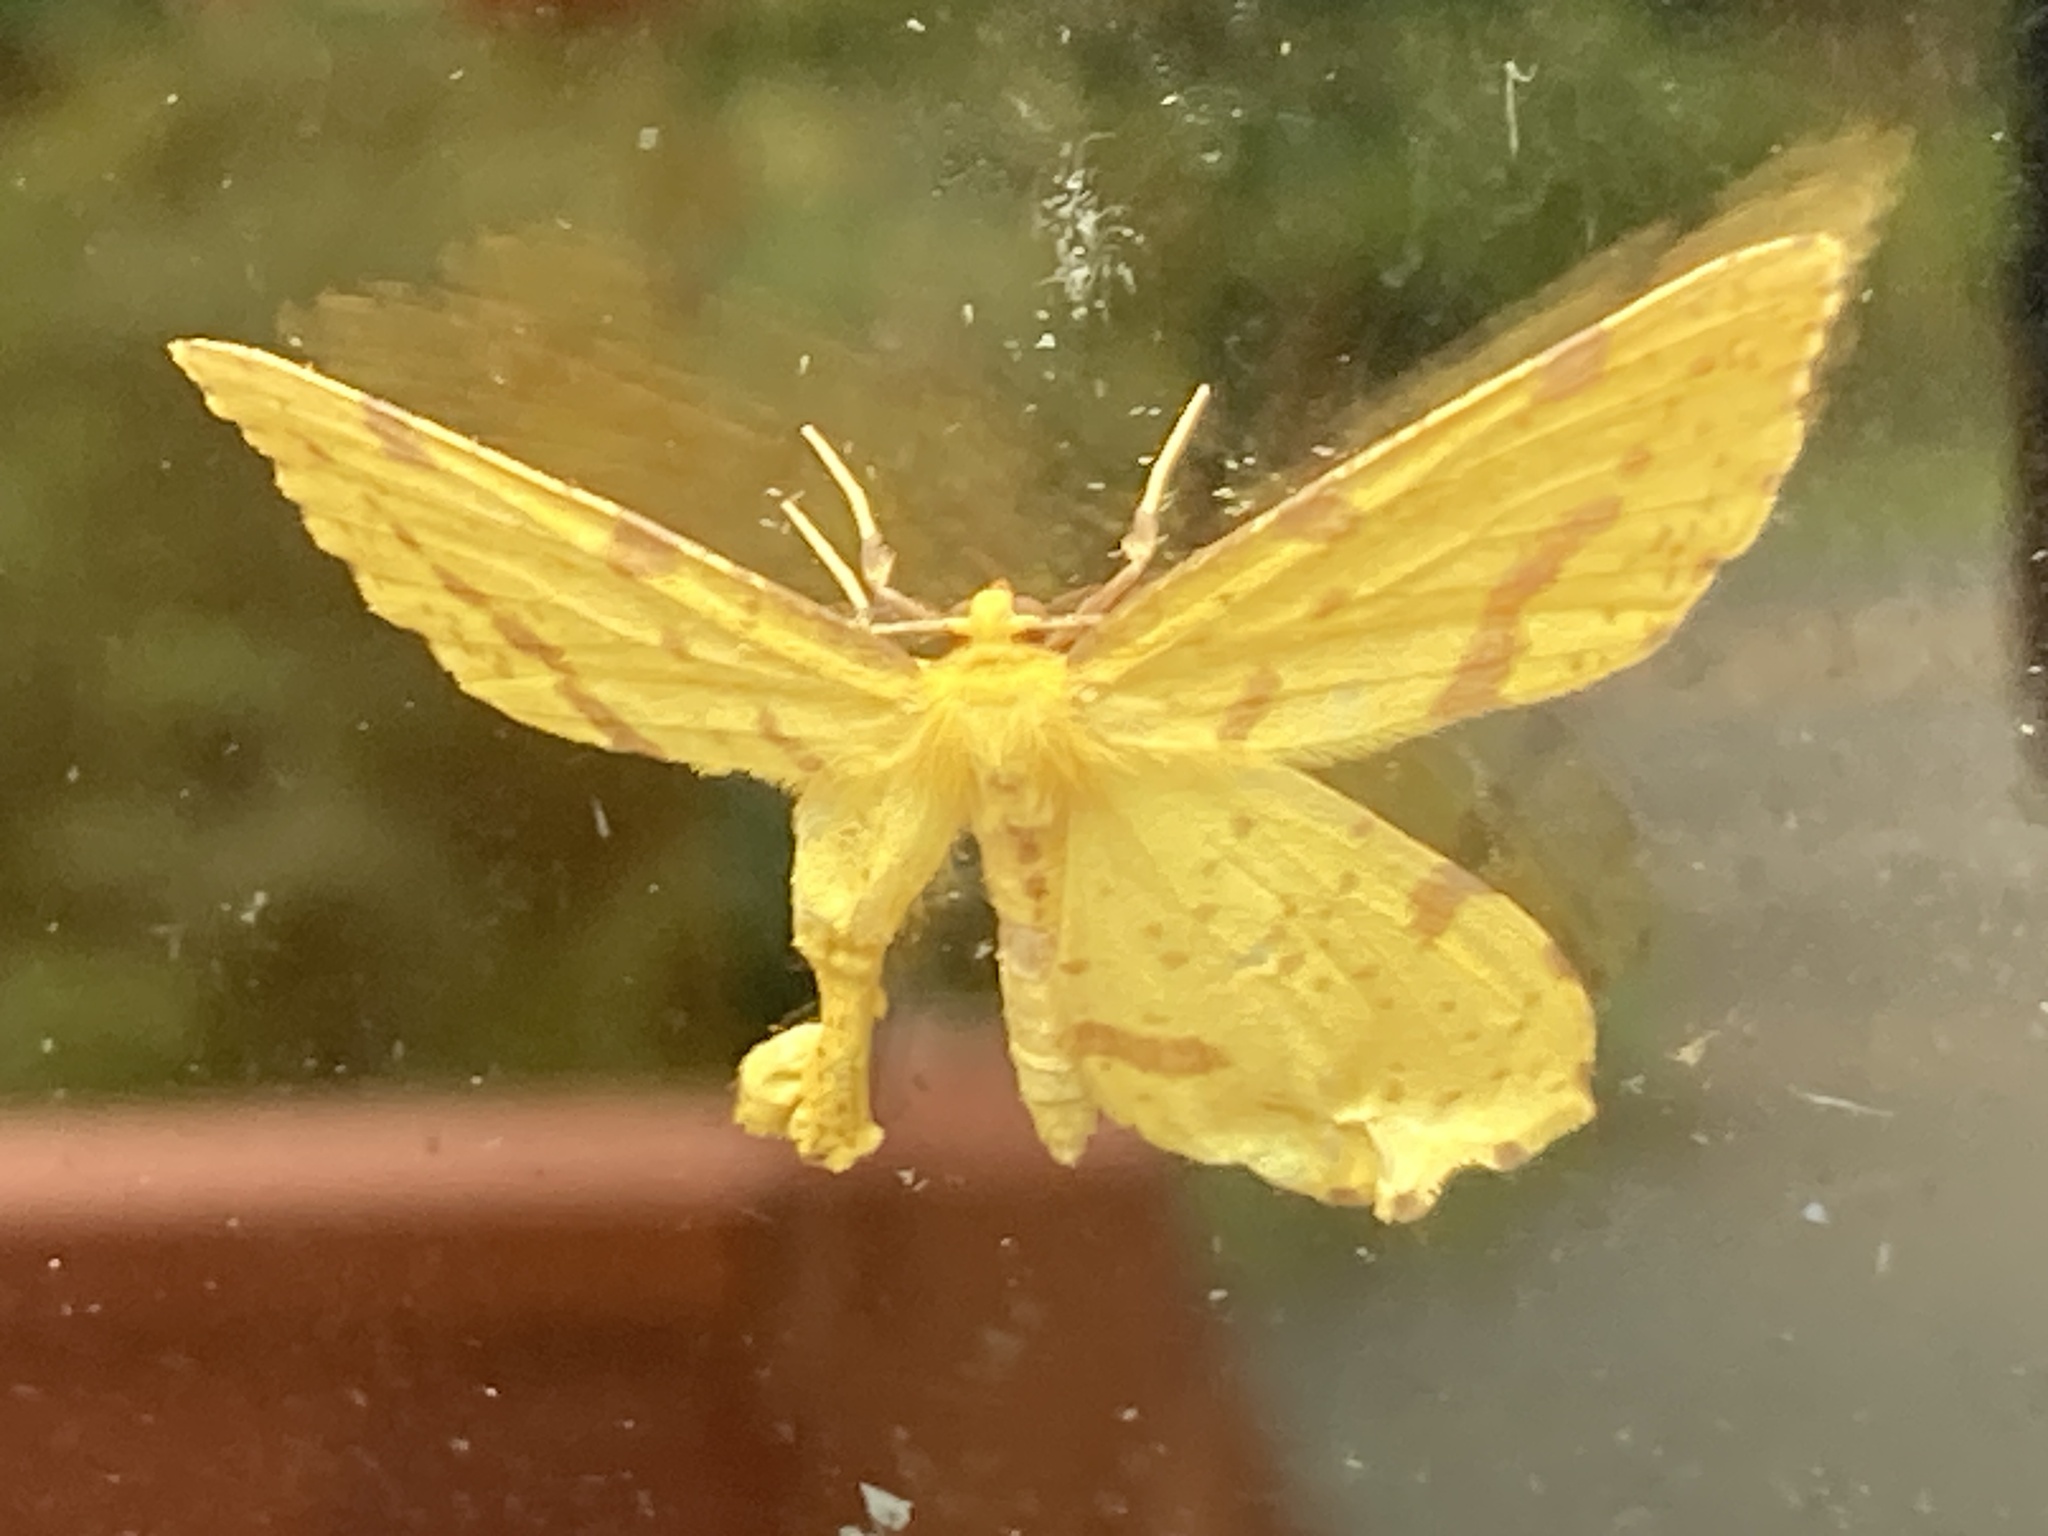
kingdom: Animalia
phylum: Arthropoda
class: Insecta
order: Lepidoptera
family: Geometridae
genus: Xanthotype
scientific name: Xanthotype
